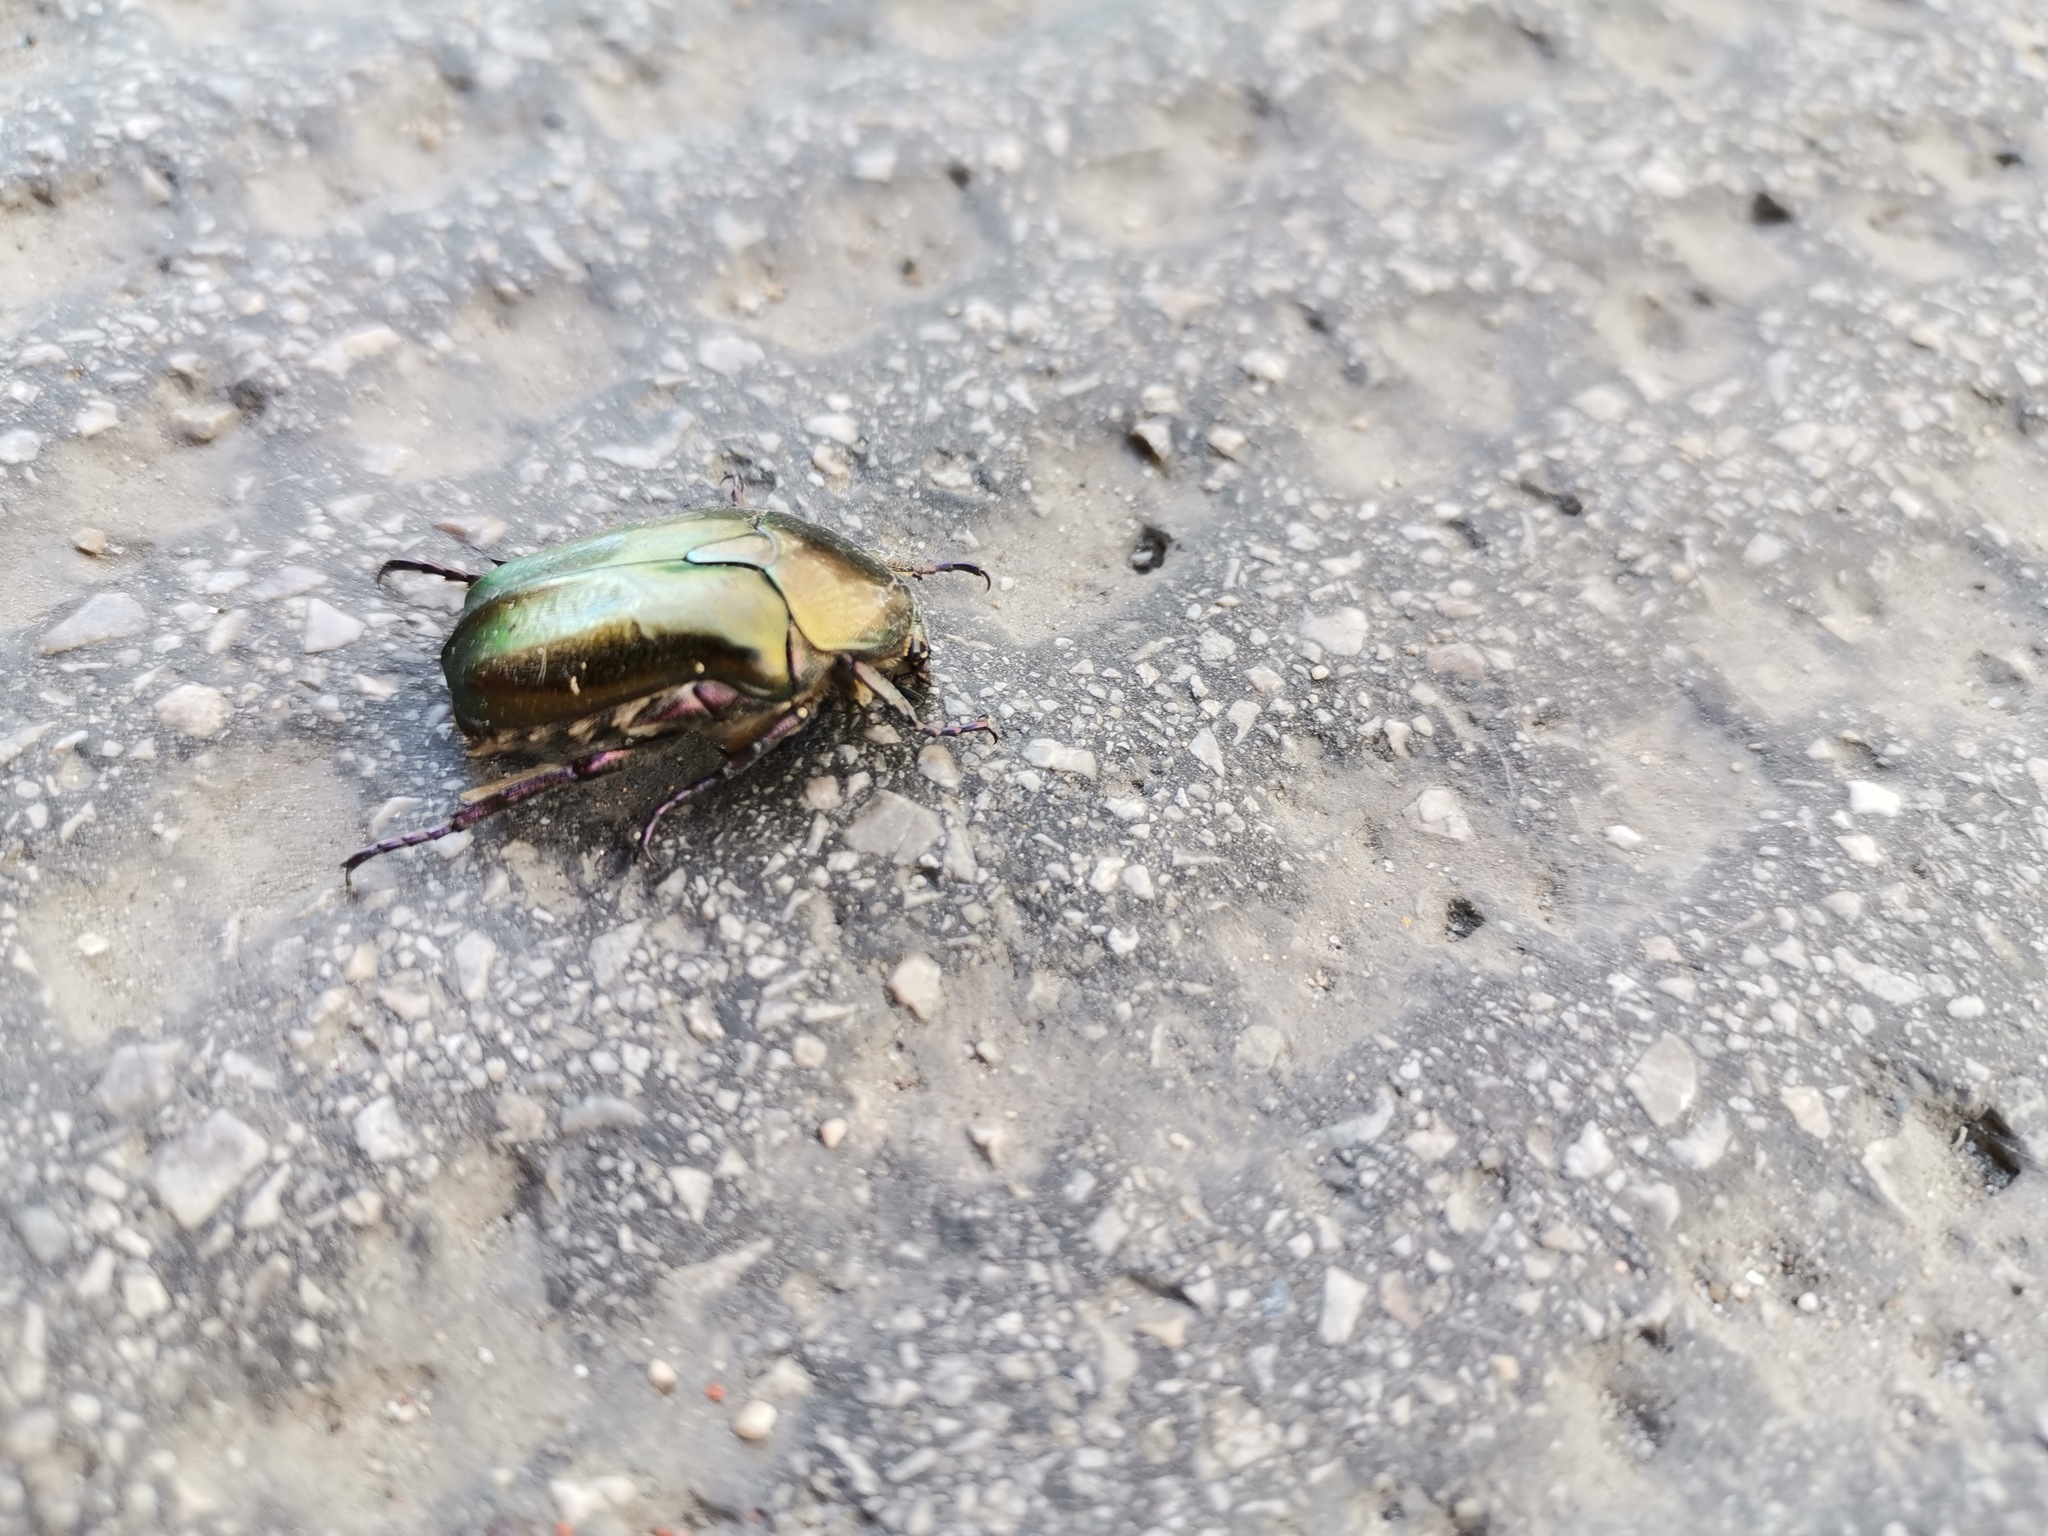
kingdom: Animalia
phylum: Arthropoda
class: Insecta
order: Coleoptera
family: Scarabaeidae
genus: Protaetia
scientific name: Protaetia cuprea
